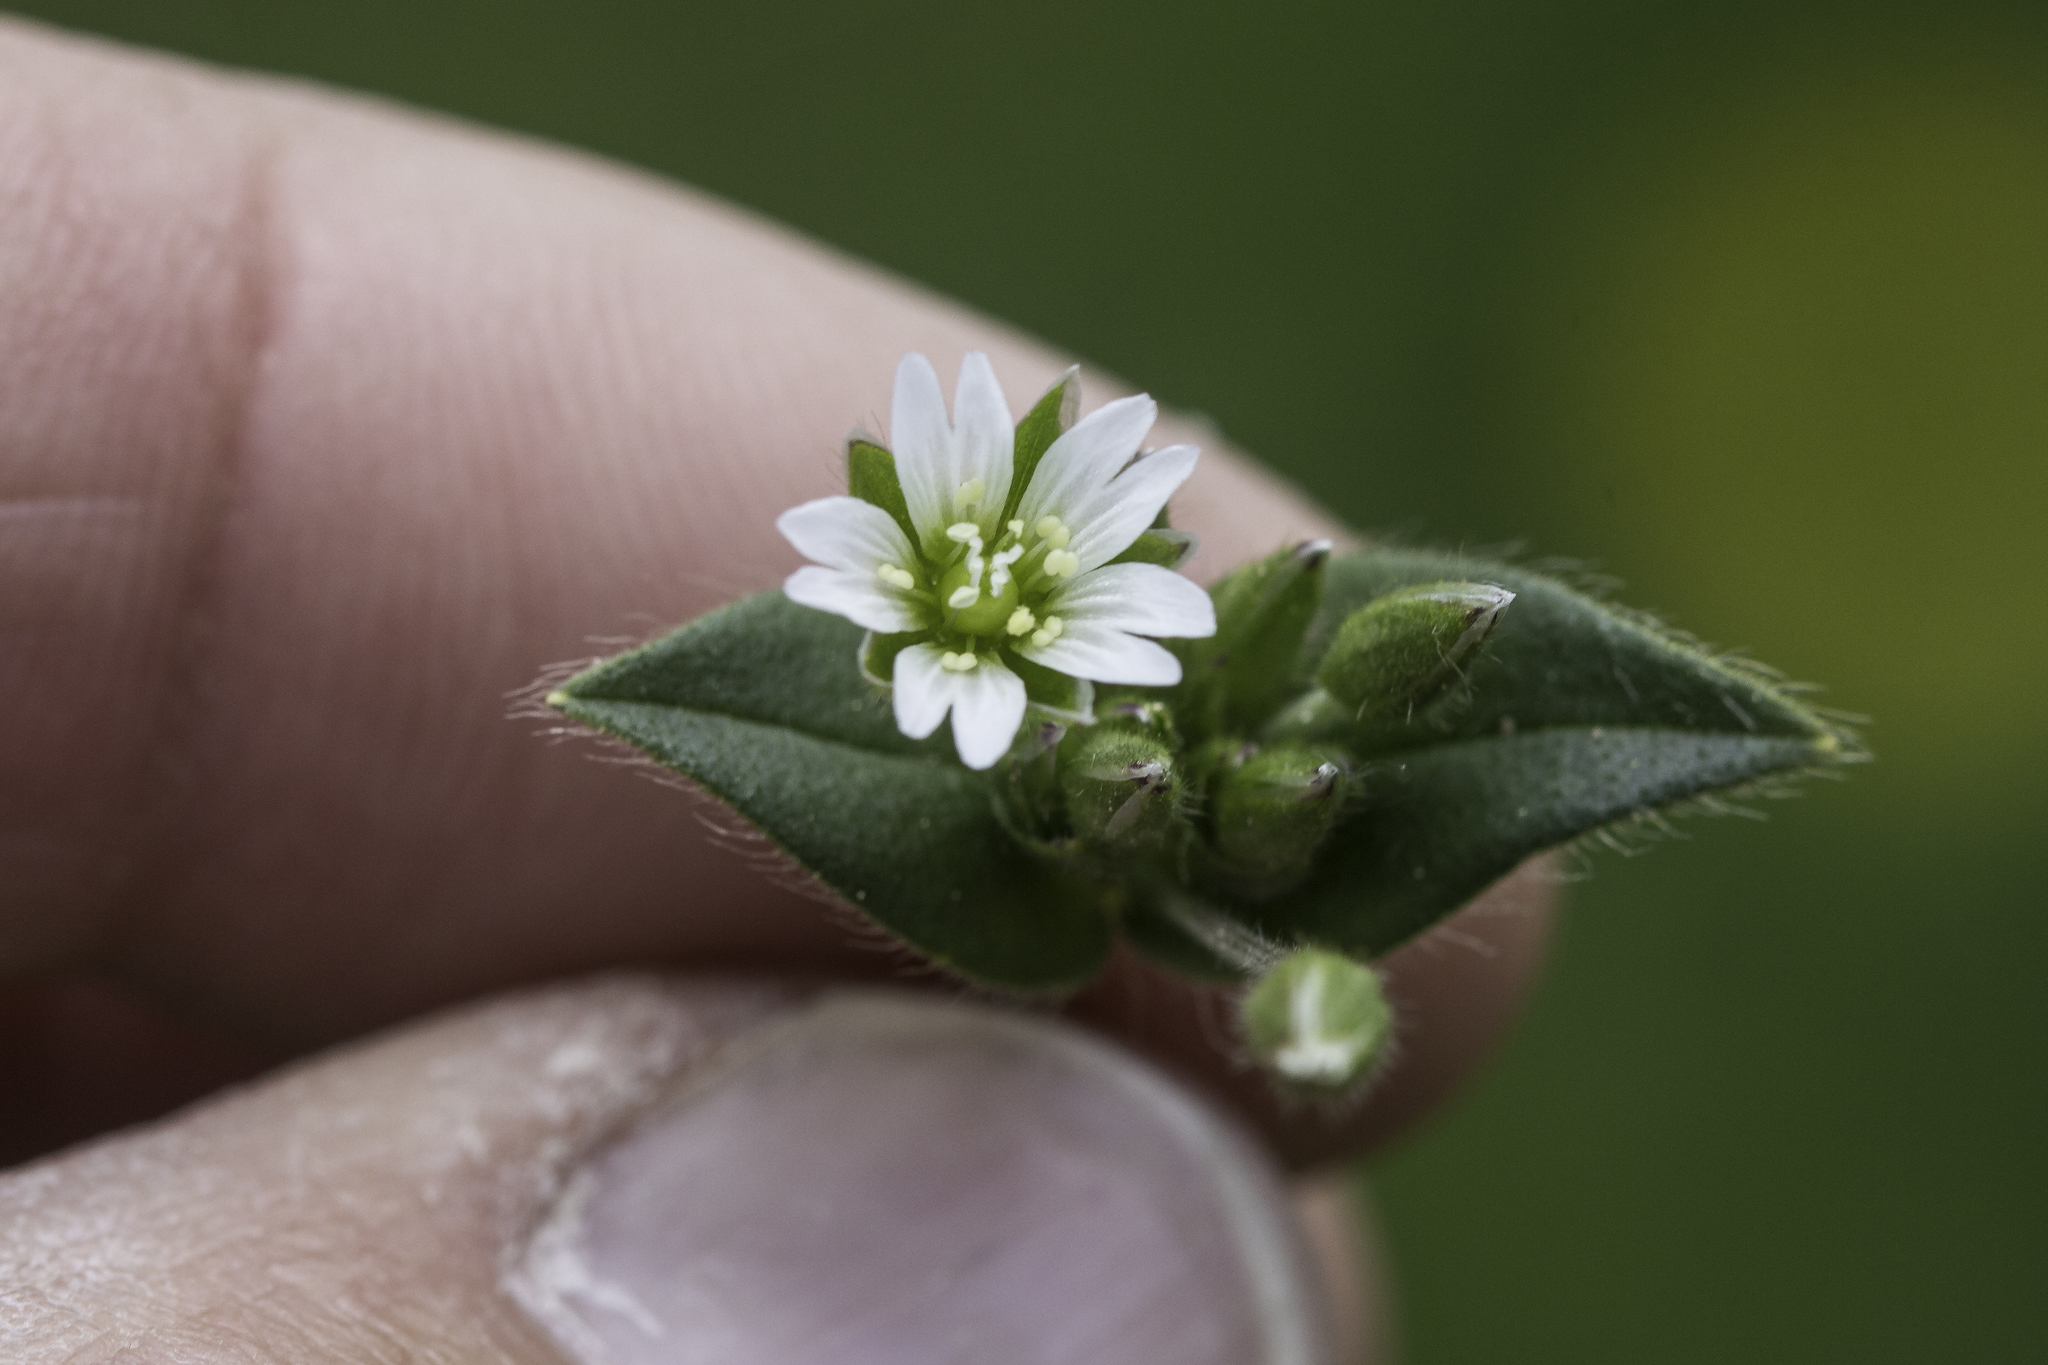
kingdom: Plantae
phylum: Tracheophyta
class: Magnoliopsida
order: Caryophyllales
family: Caryophyllaceae
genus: Cerastium
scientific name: Cerastium fontanum
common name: Common mouse-ear
